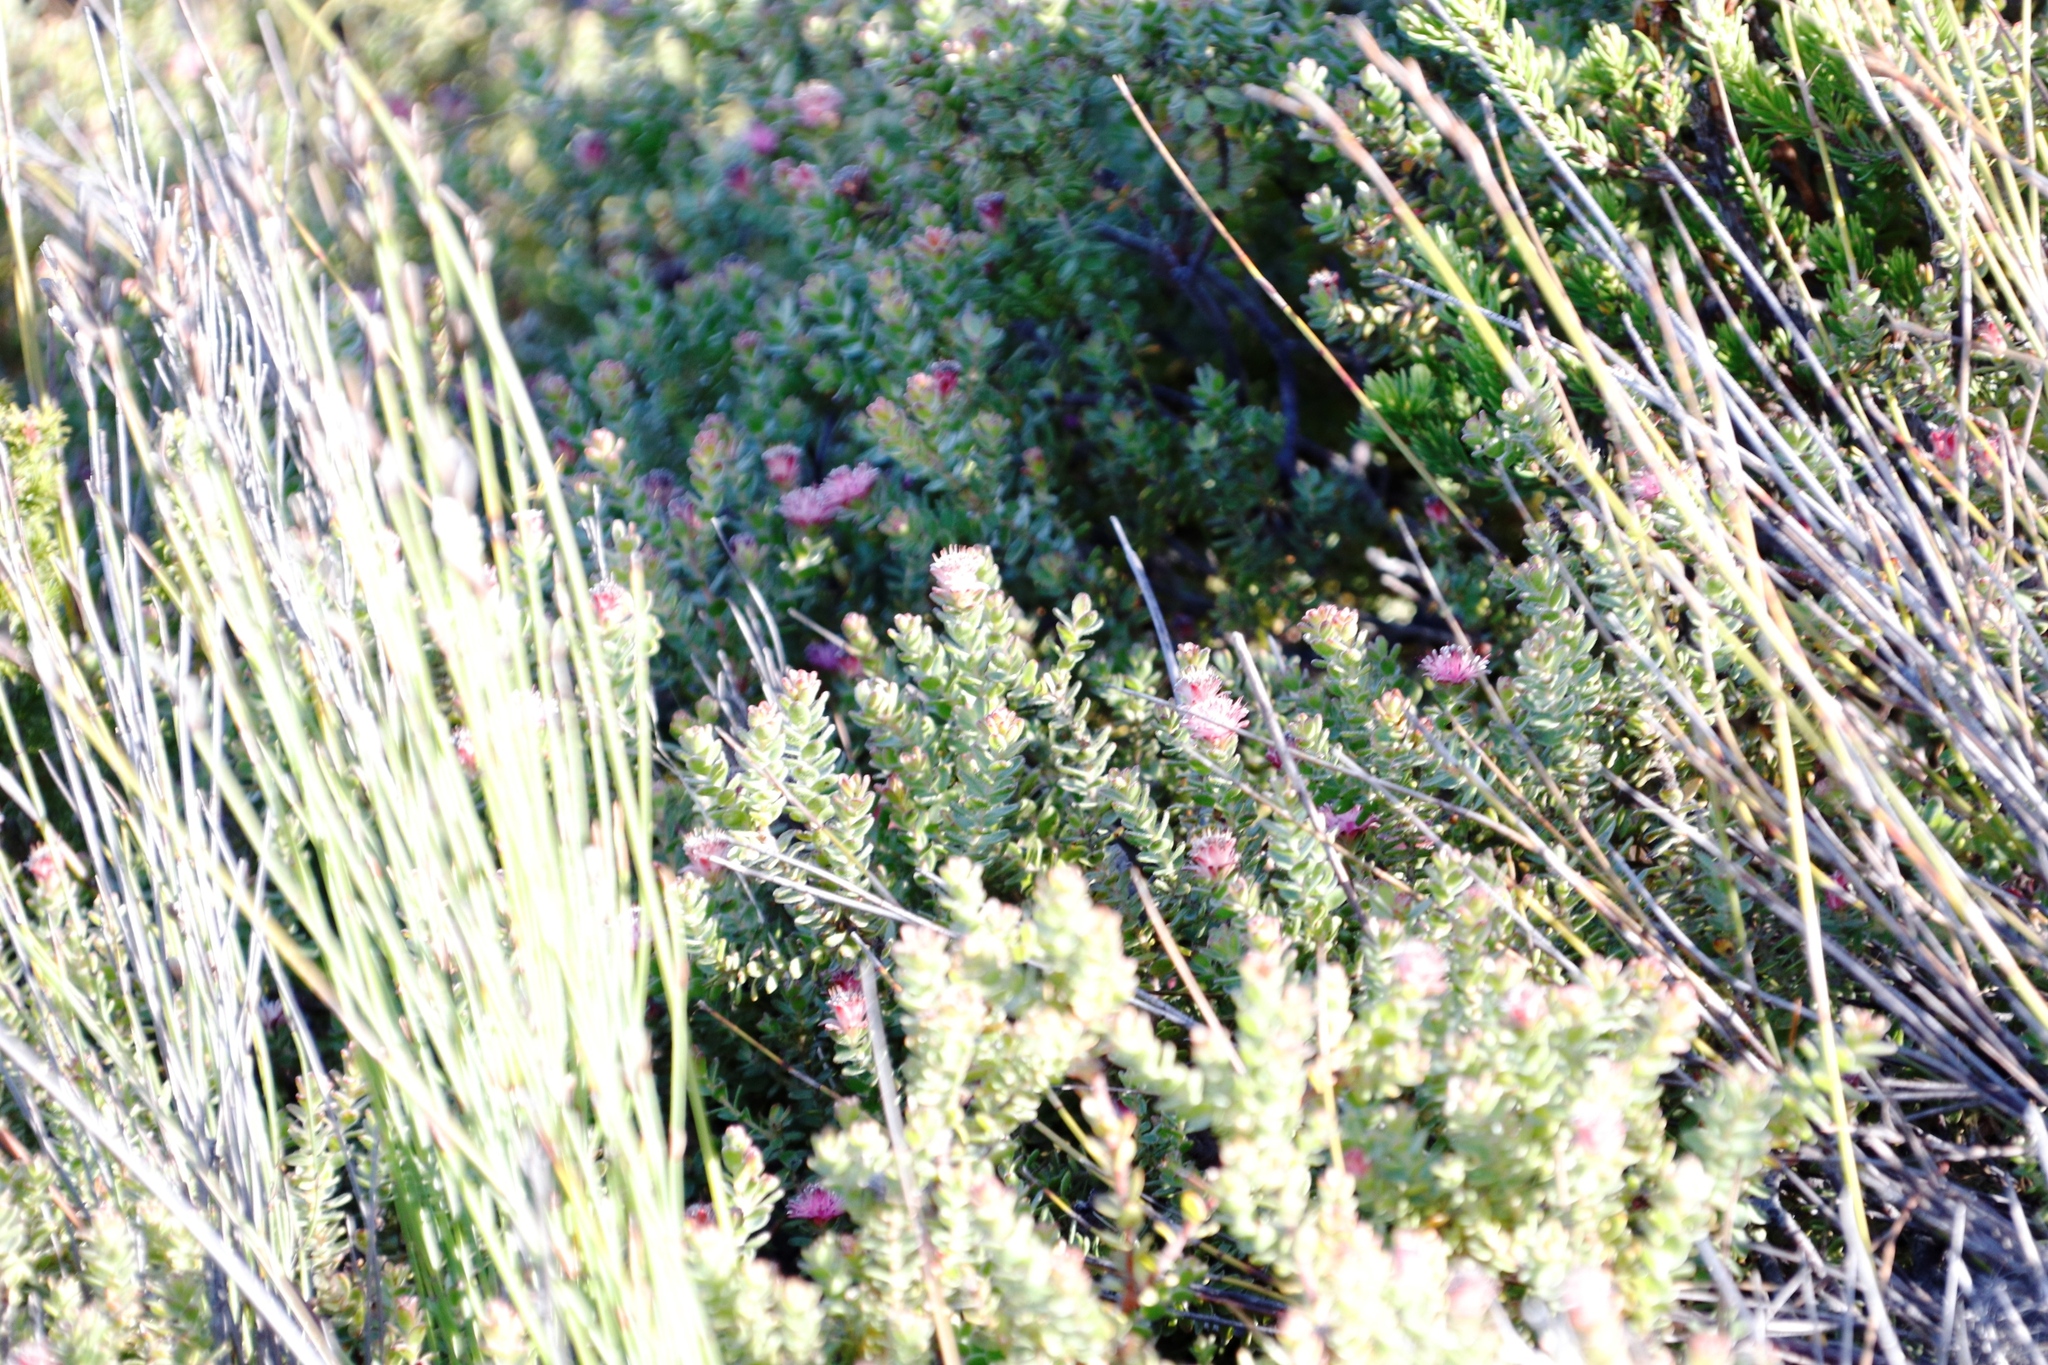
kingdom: Plantae
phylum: Tracheophyta
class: Magnoliopsida
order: Proteales
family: Proteaceae
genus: Diastella
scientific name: Diastella divaricata
